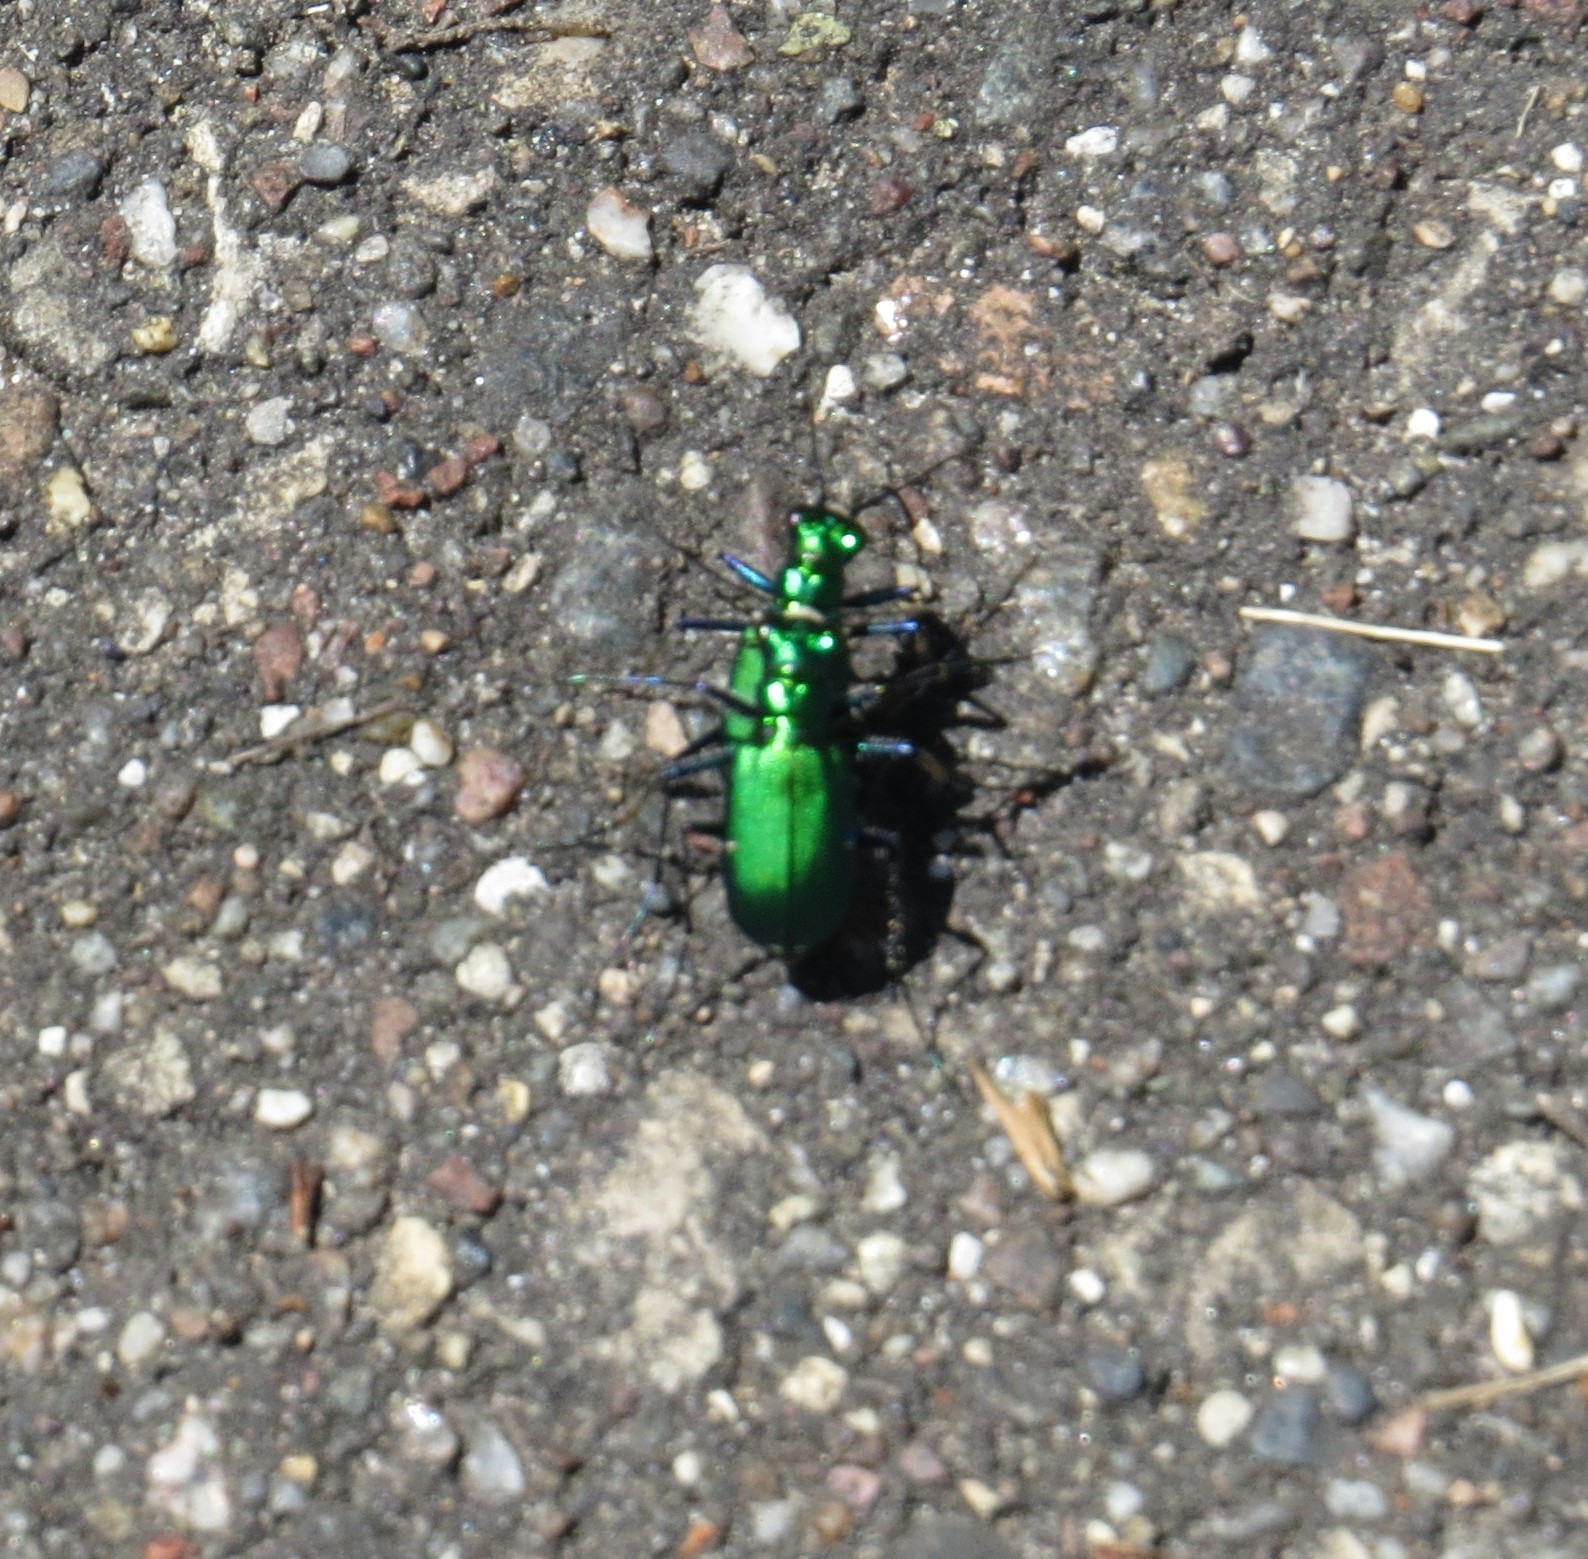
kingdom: Animalia
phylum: Arthropoda
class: Insecta
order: Coleoptera
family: Carabidae
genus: Cicindela
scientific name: Cicindela sexguttata
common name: Six-spotted tiger beetle
